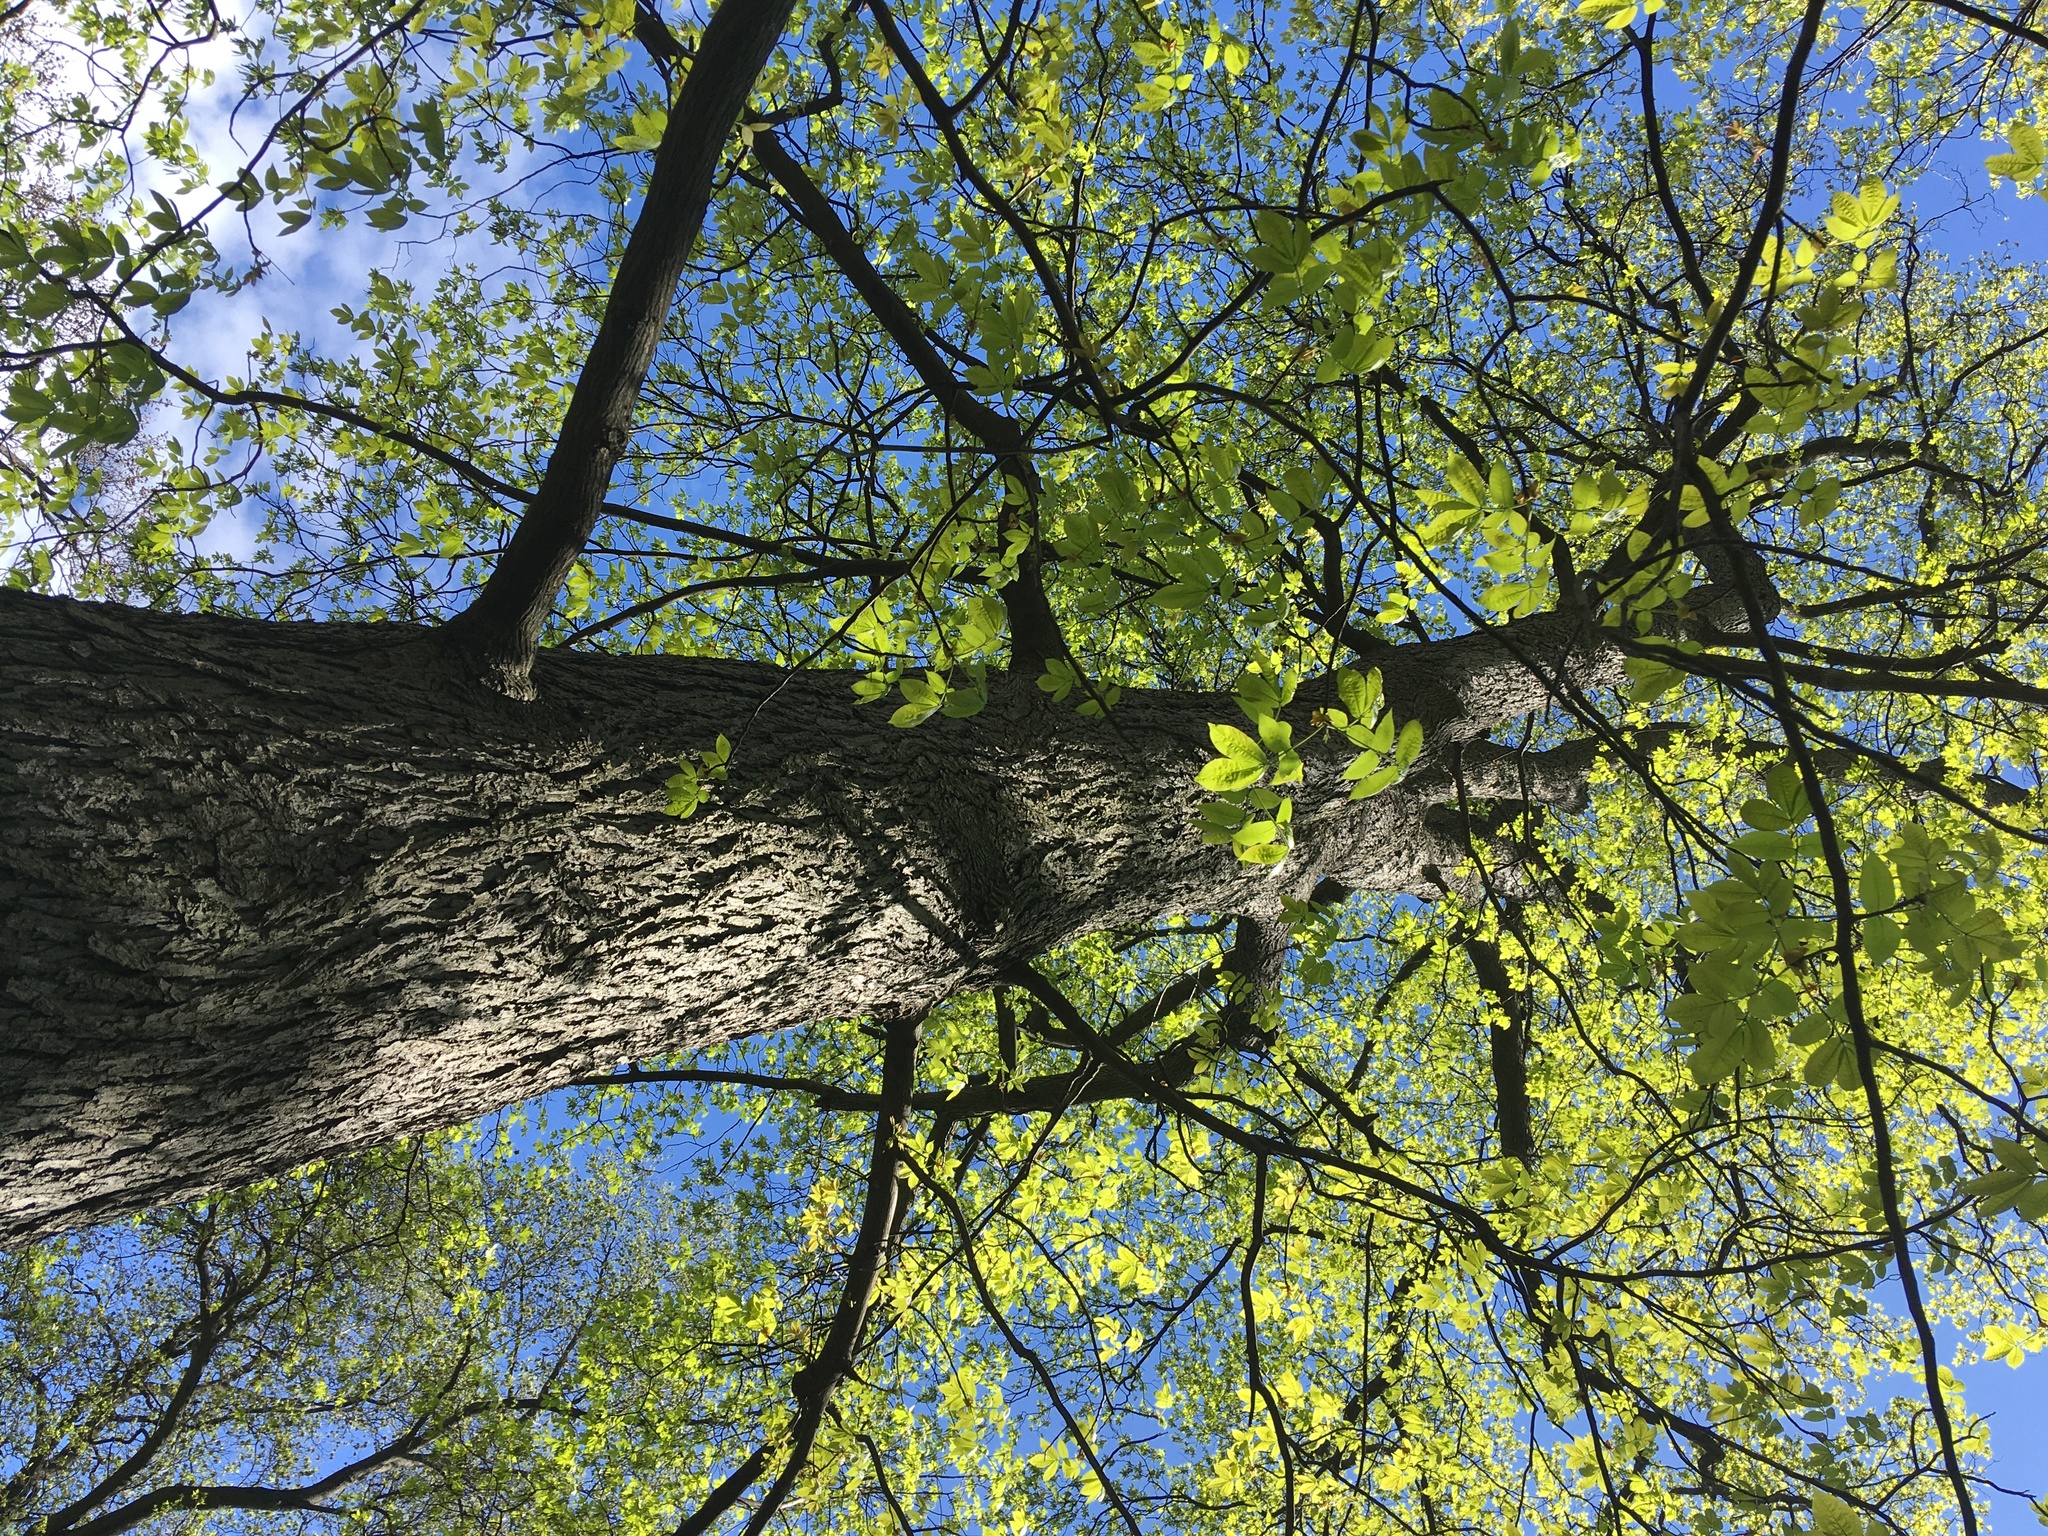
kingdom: Plantae
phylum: Tracheophyta
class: Magnoliopsida
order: Fagales
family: Juglandaceae
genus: Carya
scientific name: Carya glabra
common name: Pignut hickory
